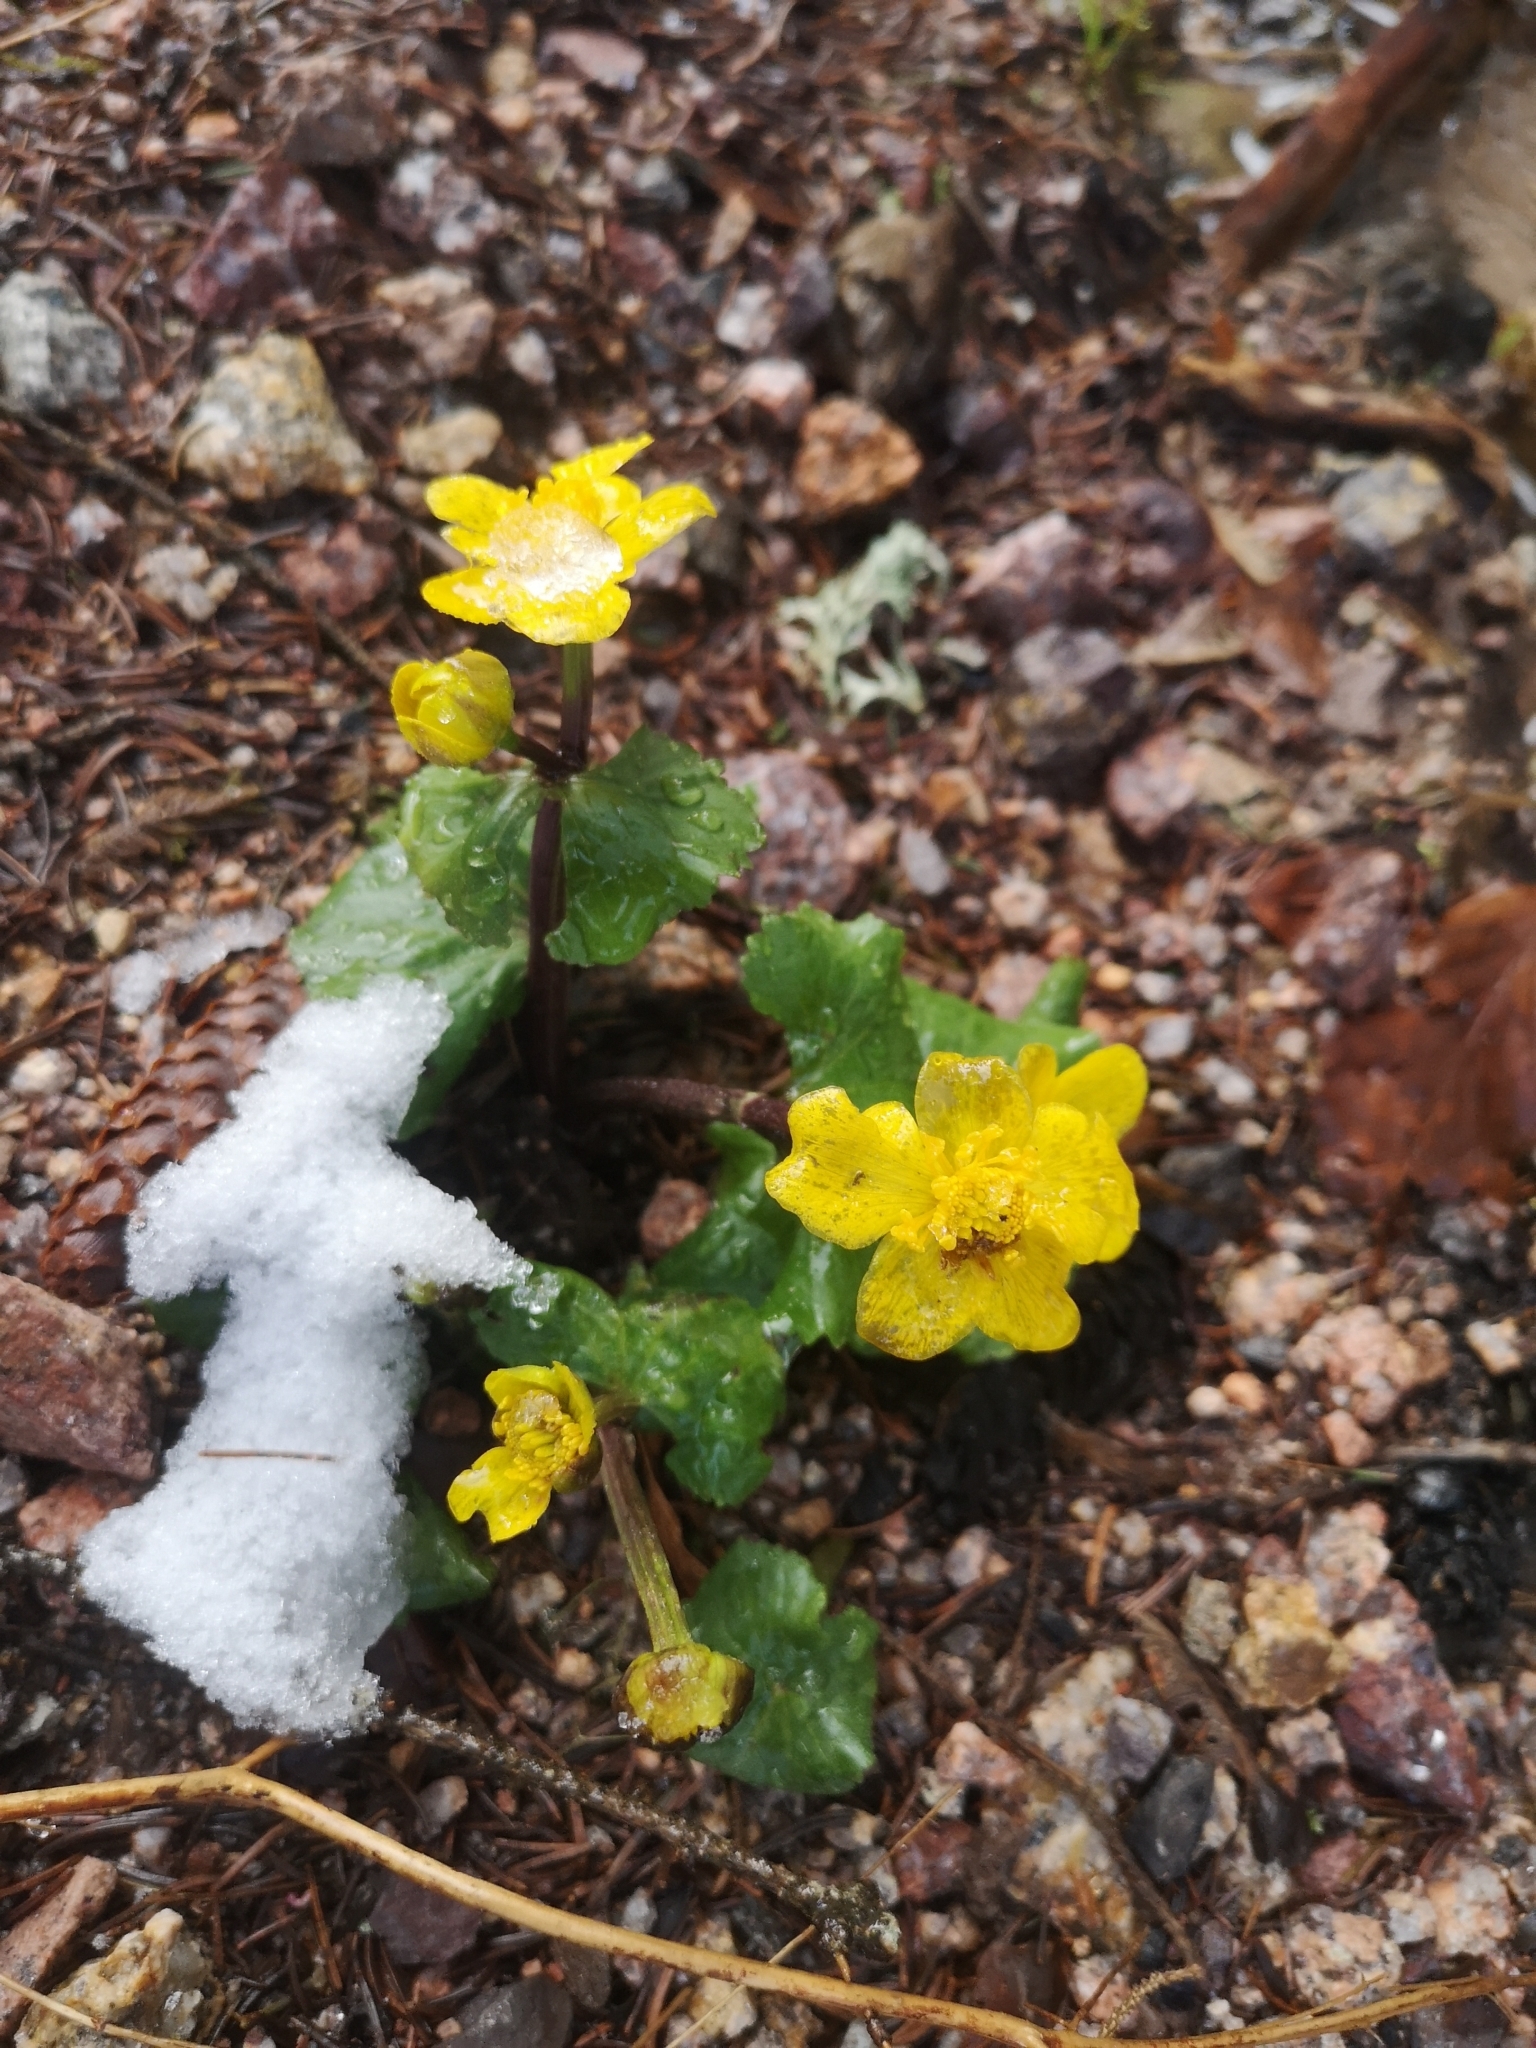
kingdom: Plantae
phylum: Tracheophyta
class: Magnoliopsida
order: Ranunculales
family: Ranunculaceae
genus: Caltha
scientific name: Caltha palustris
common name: Marsh marigold
